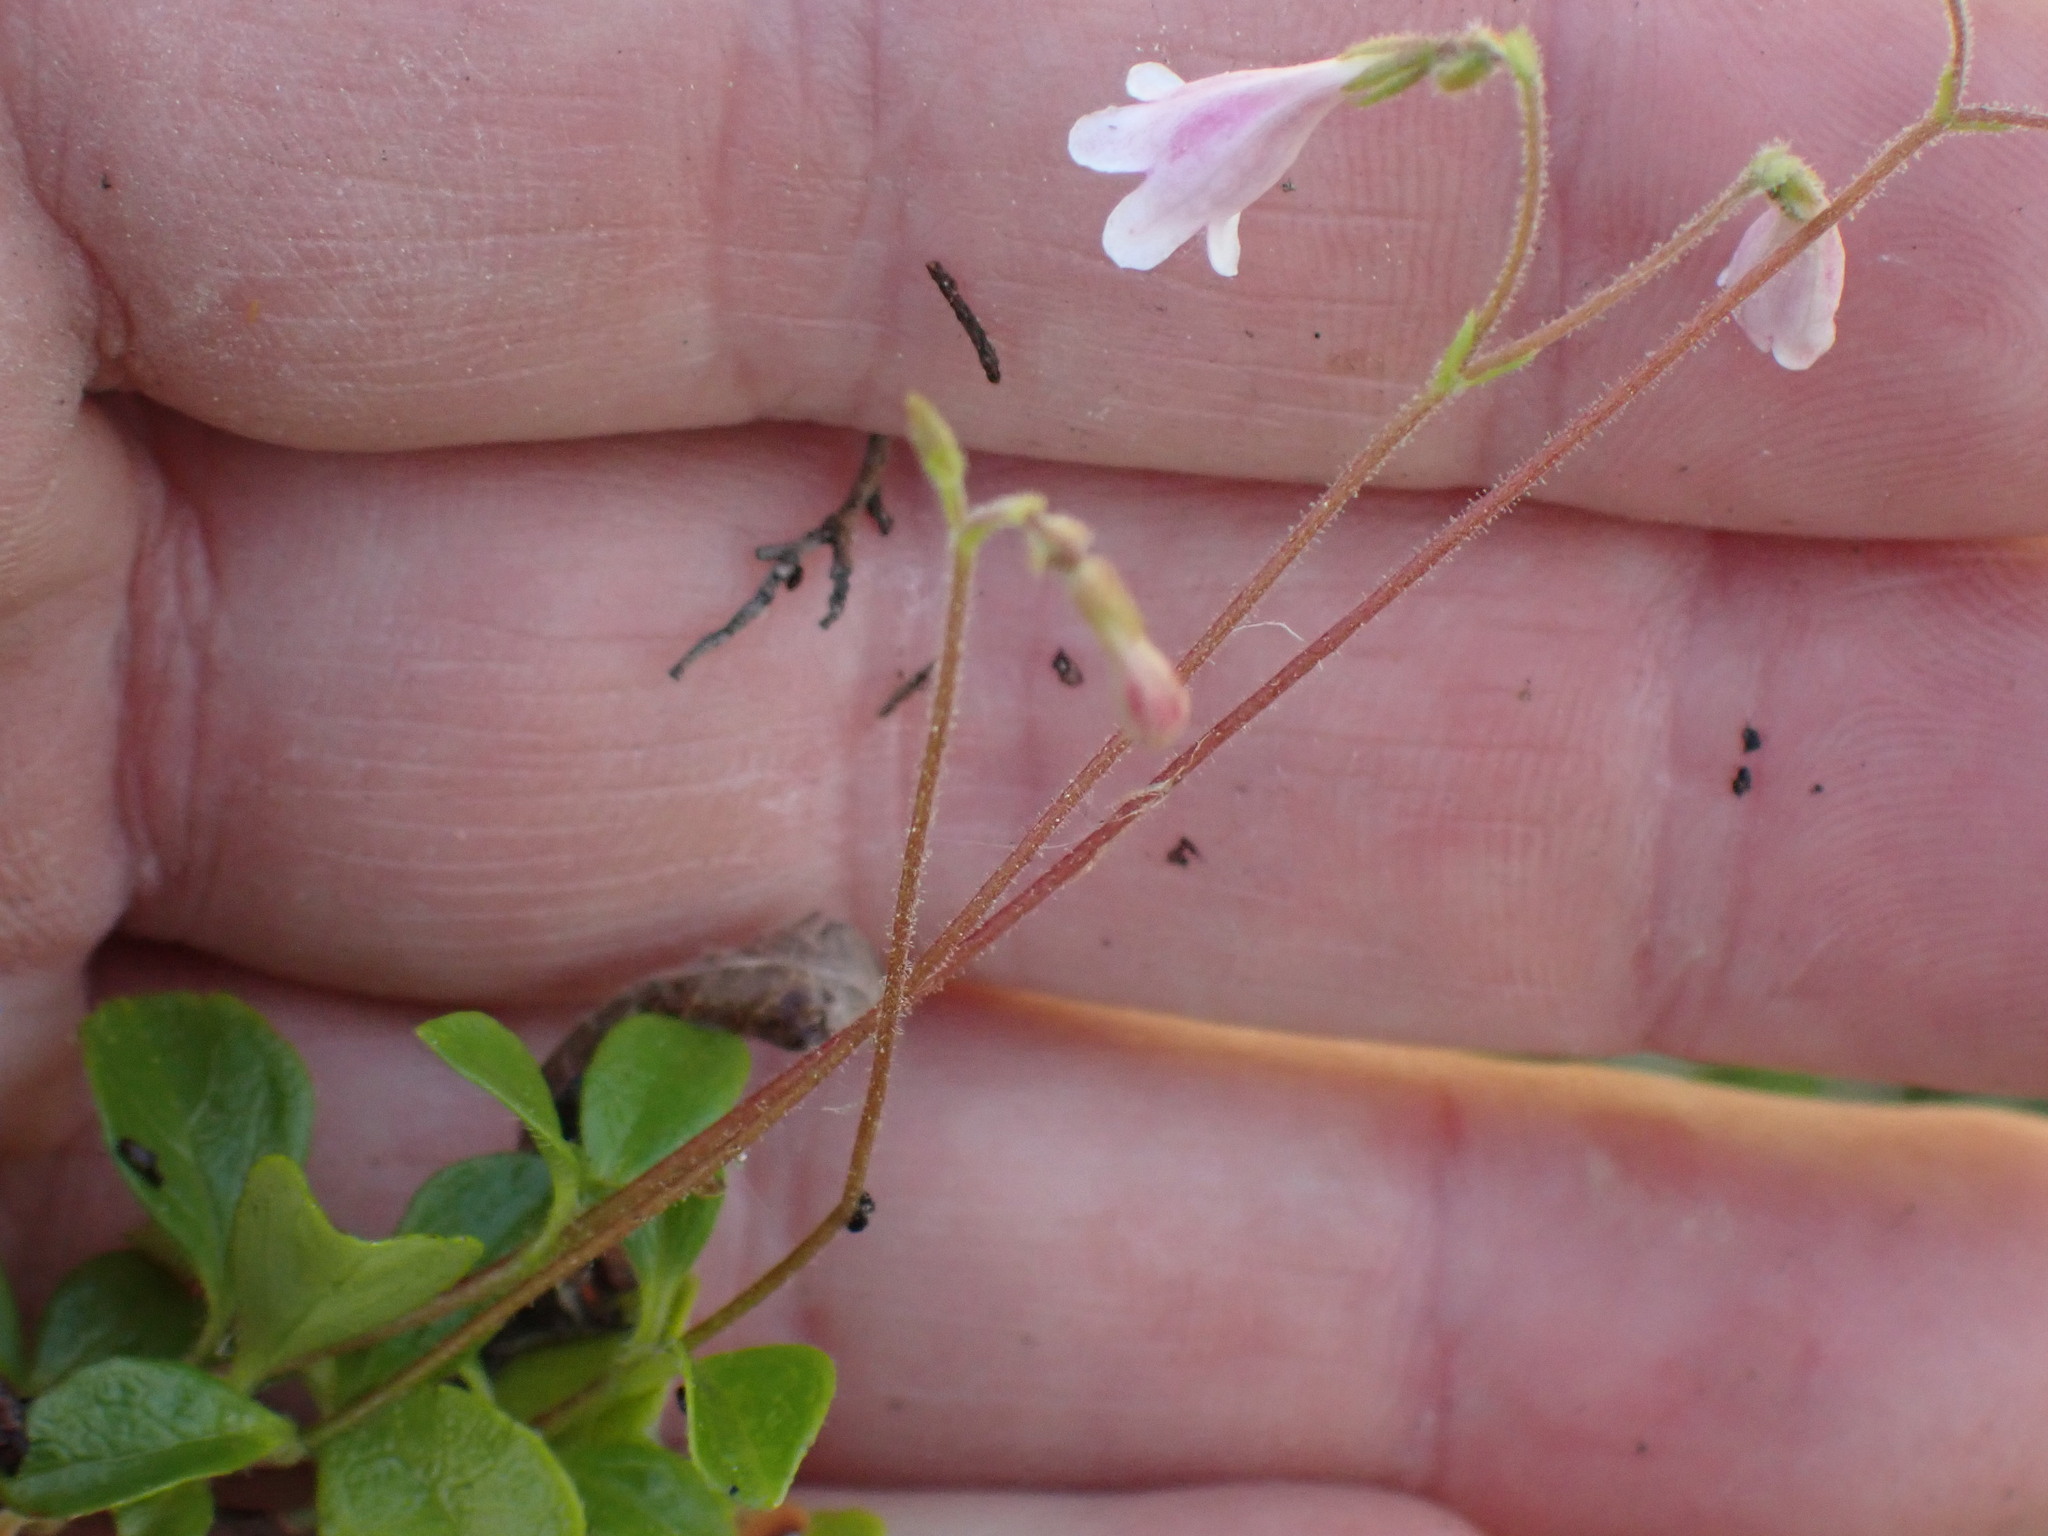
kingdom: Plantae
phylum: Tracheophyta
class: Magnoliopsida
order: Dipsacales
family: Caprifoliaceae
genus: Linnaea
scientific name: Linnaea borealis
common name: Twinflower
